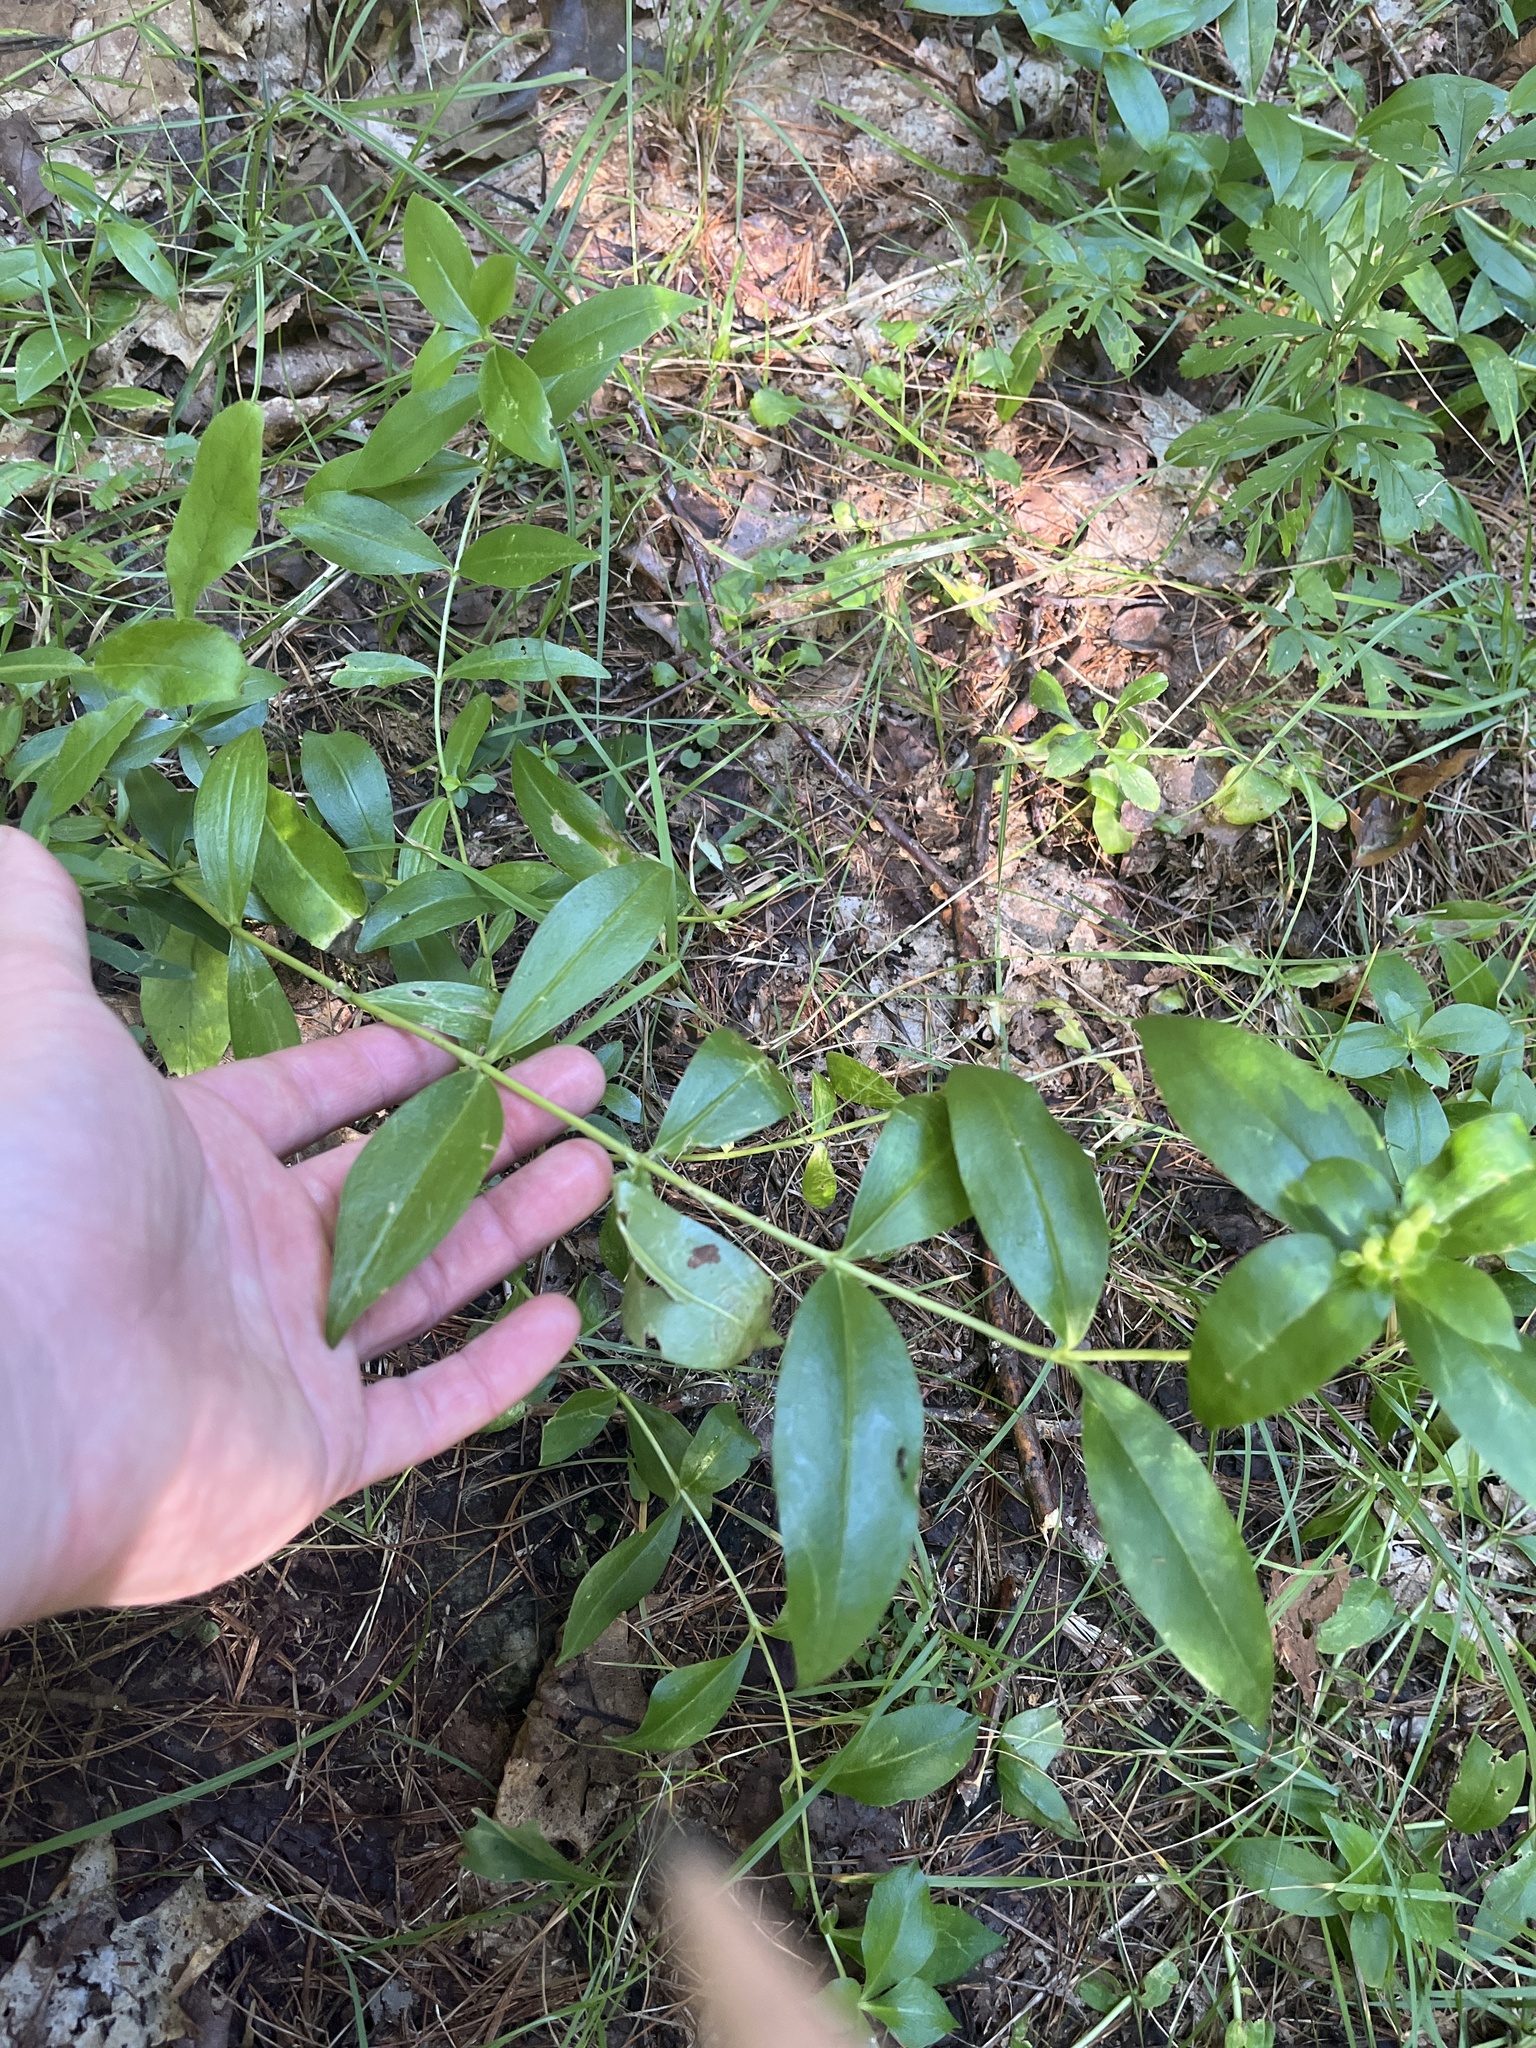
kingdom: Plantae
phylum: Tracheophyta
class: Magnoliopsida
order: Gentianales
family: Gentianaceae
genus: Gentiana
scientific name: Gentiana clausa
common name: Blind gentian
